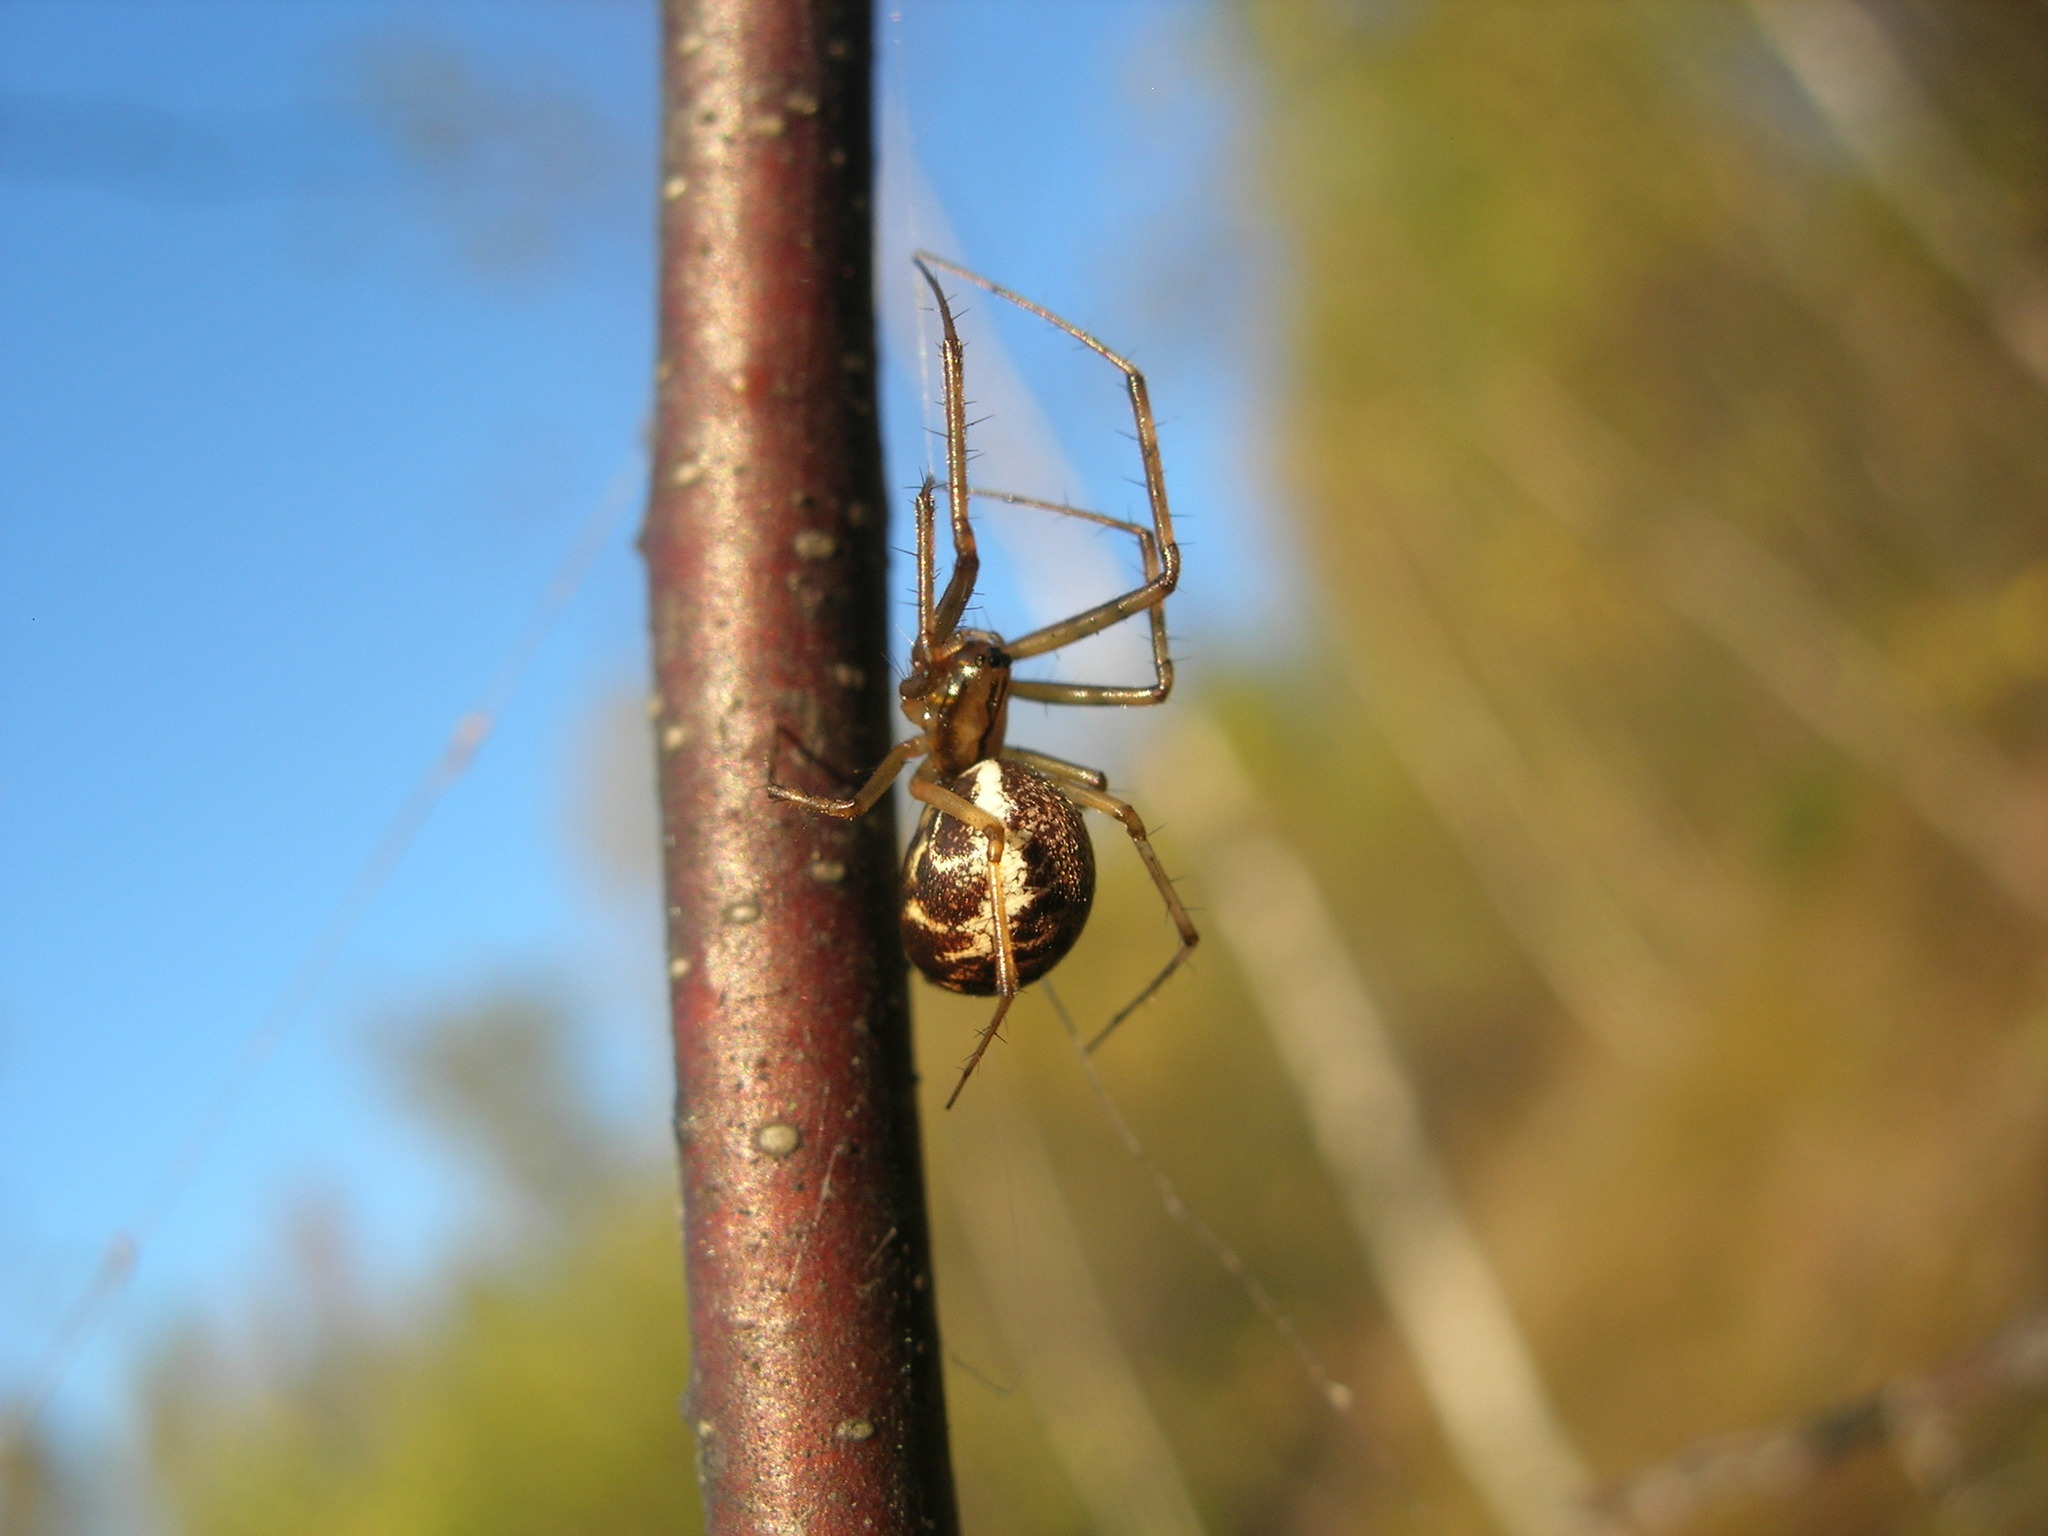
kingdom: Animalia
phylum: Arthropoda
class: Arachnida
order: Araneae
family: Linyphiidae
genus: Linyphia
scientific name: Linyphia triangularis
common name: Money spider
